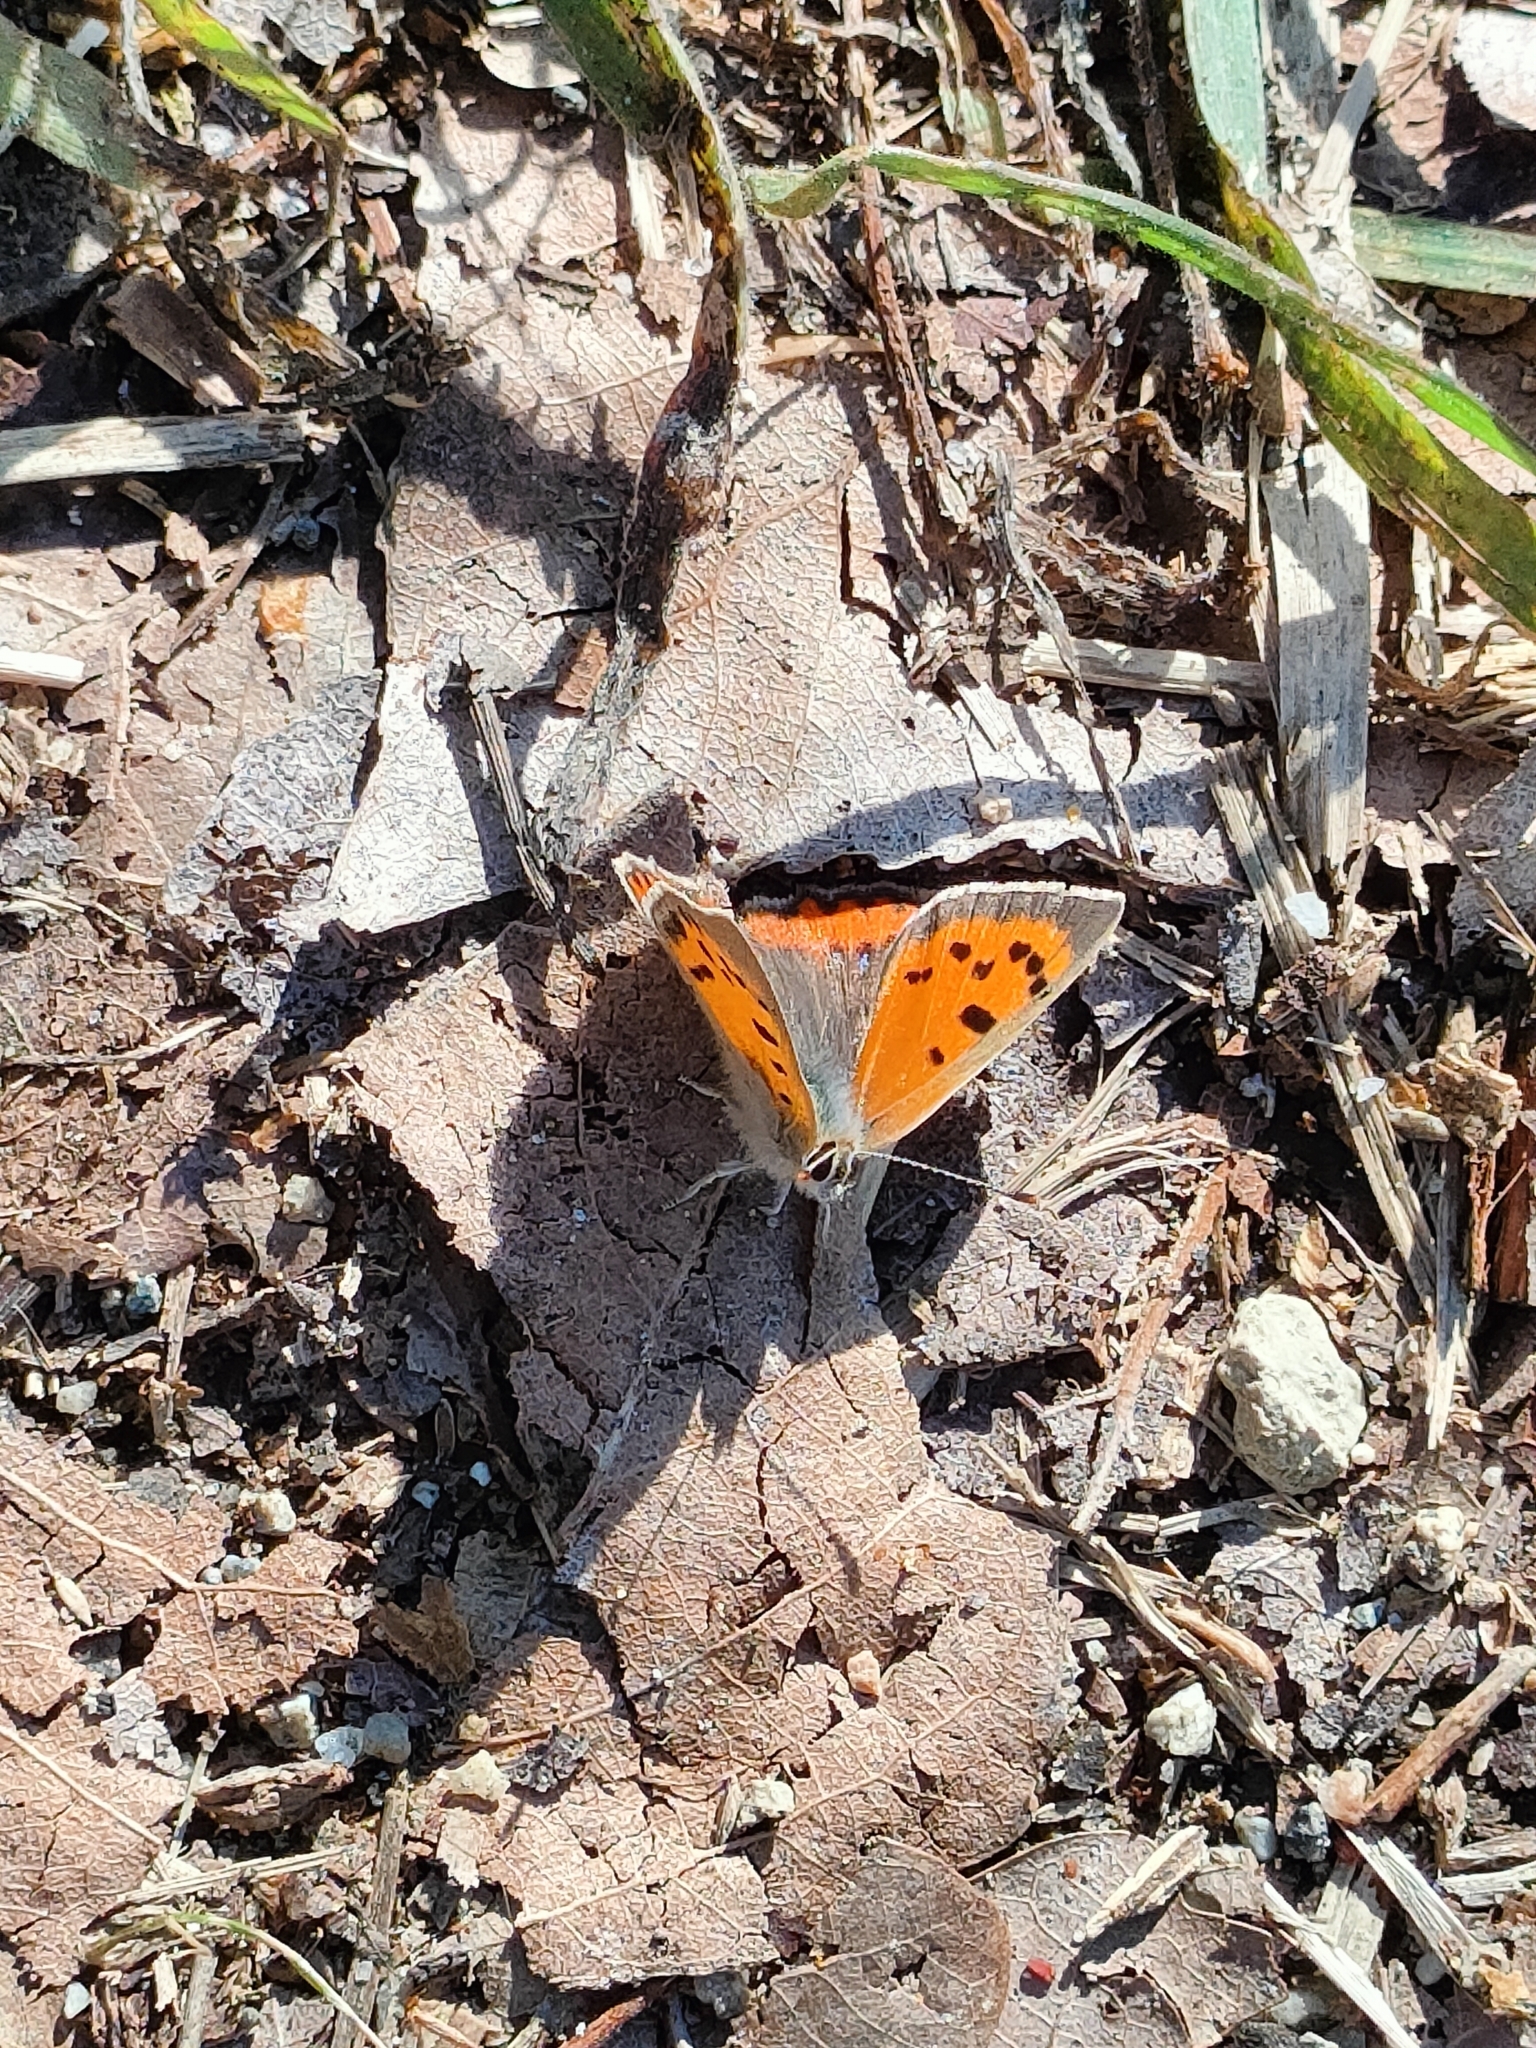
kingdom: Animalia
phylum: Arthropoda
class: Insecta
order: Lepidoptera
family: Lycaenidae
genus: Lycaena
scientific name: Lycaena phlaeas
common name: Small copper
